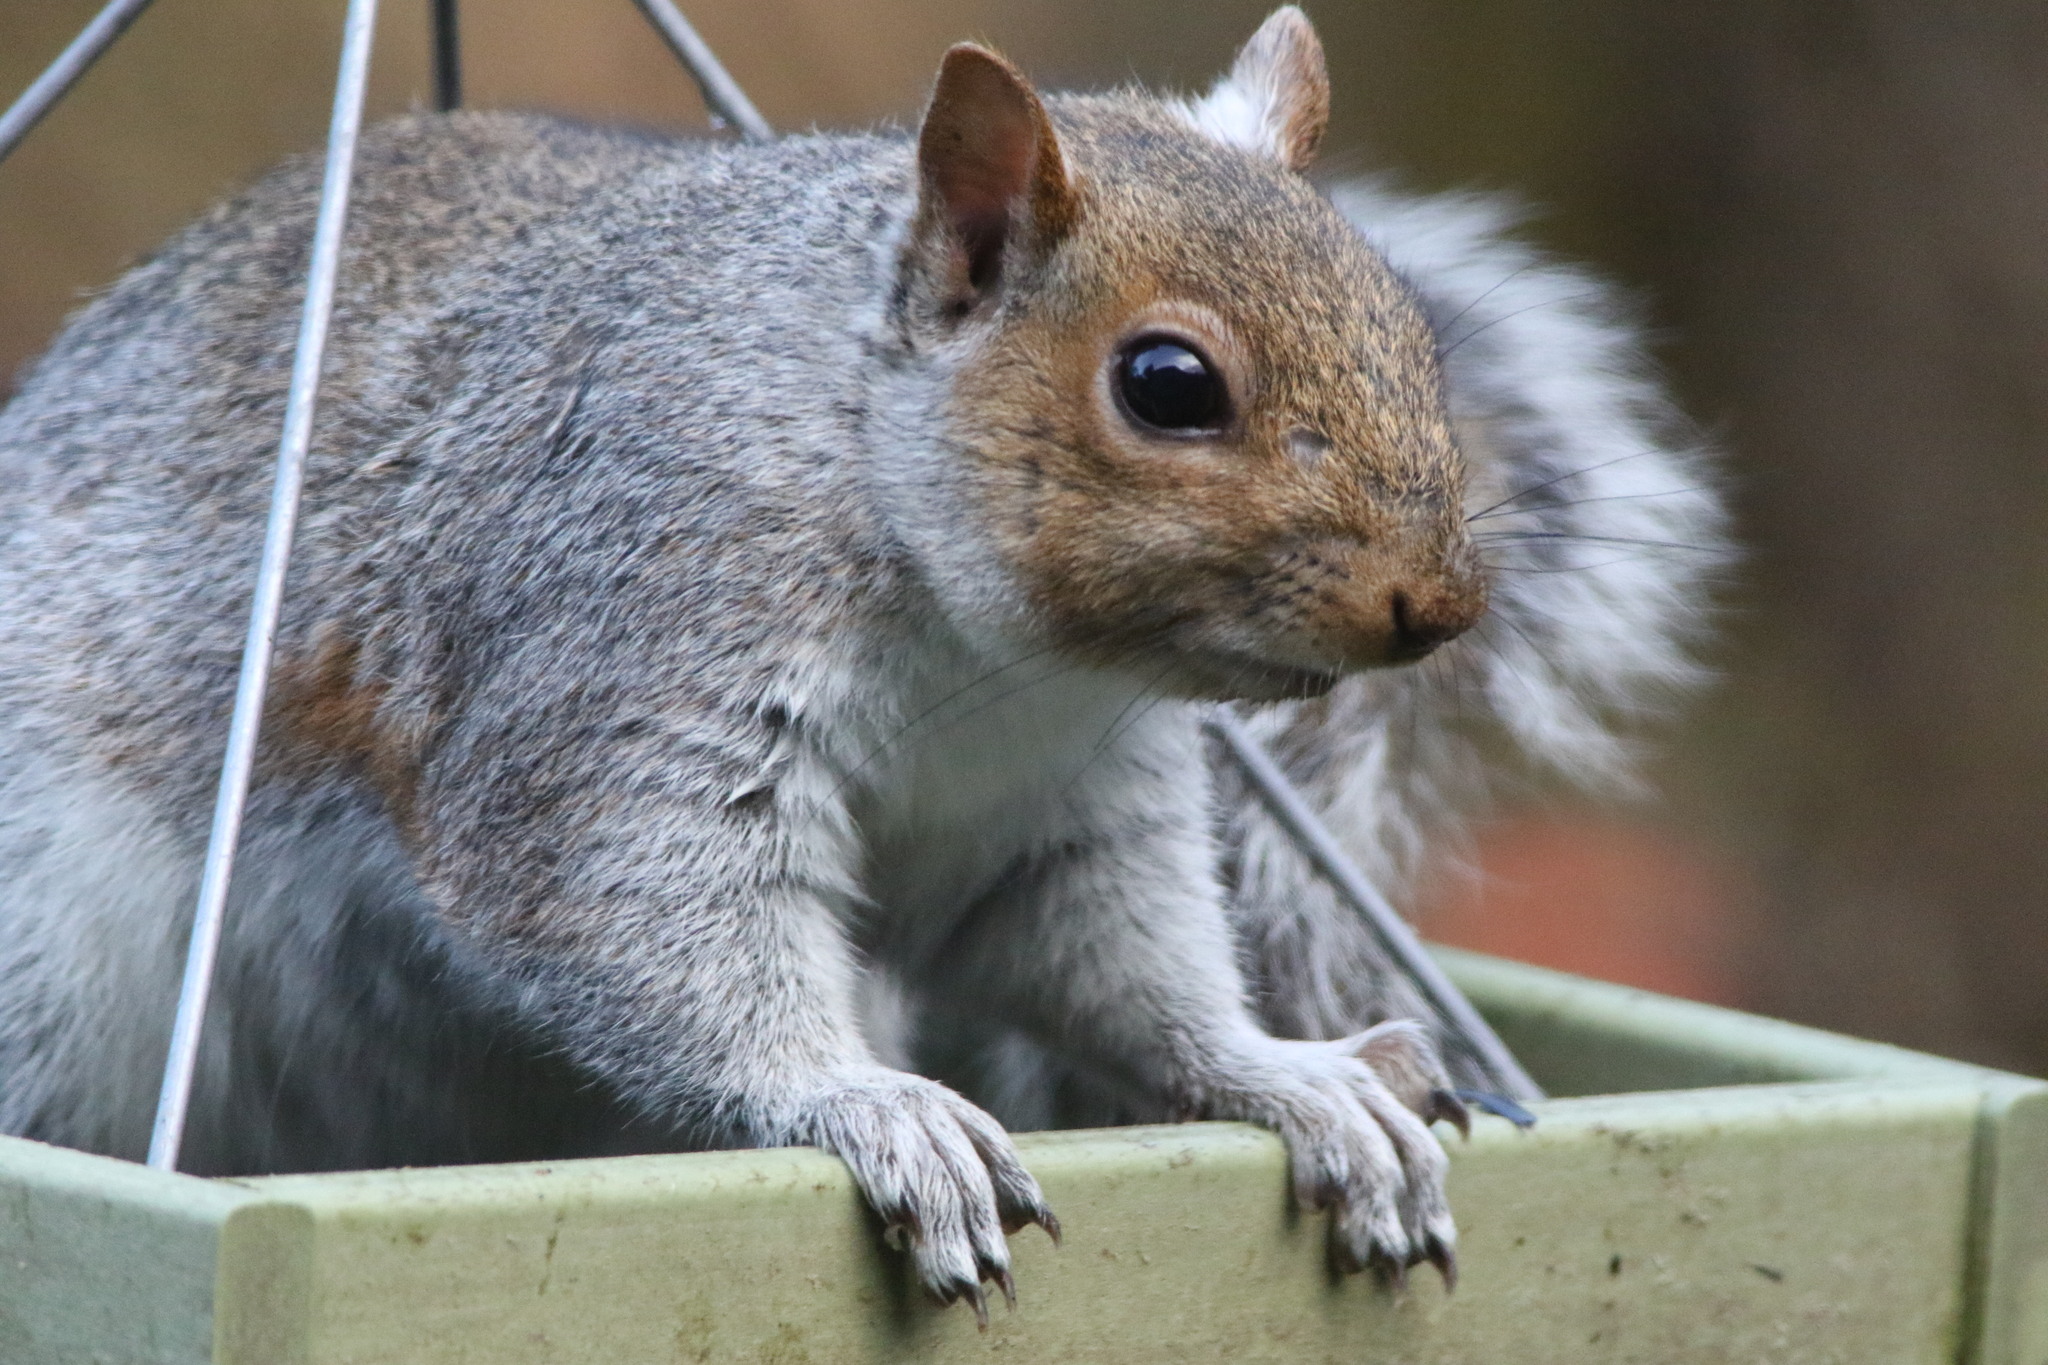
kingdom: Animalia
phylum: Chordata
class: Mammalia
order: Rodentia
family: Sciuridae
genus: Sciurus
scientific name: Sciurus carolinensis
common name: Eastern gray squirrel
